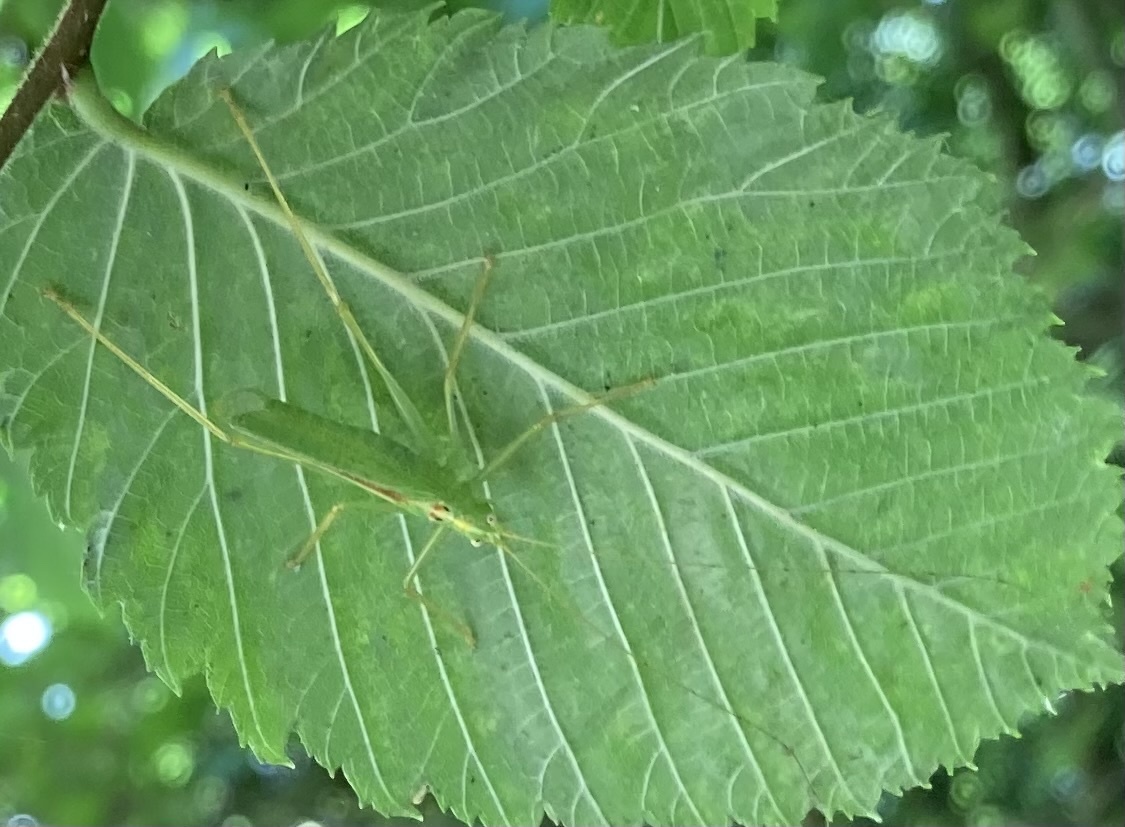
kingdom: Animalia
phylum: Arthropoda
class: Insecta
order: Orthoptera
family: Tettigoniidae
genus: Meconema
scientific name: Meconema thalassinum
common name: Oak bush-cricket
